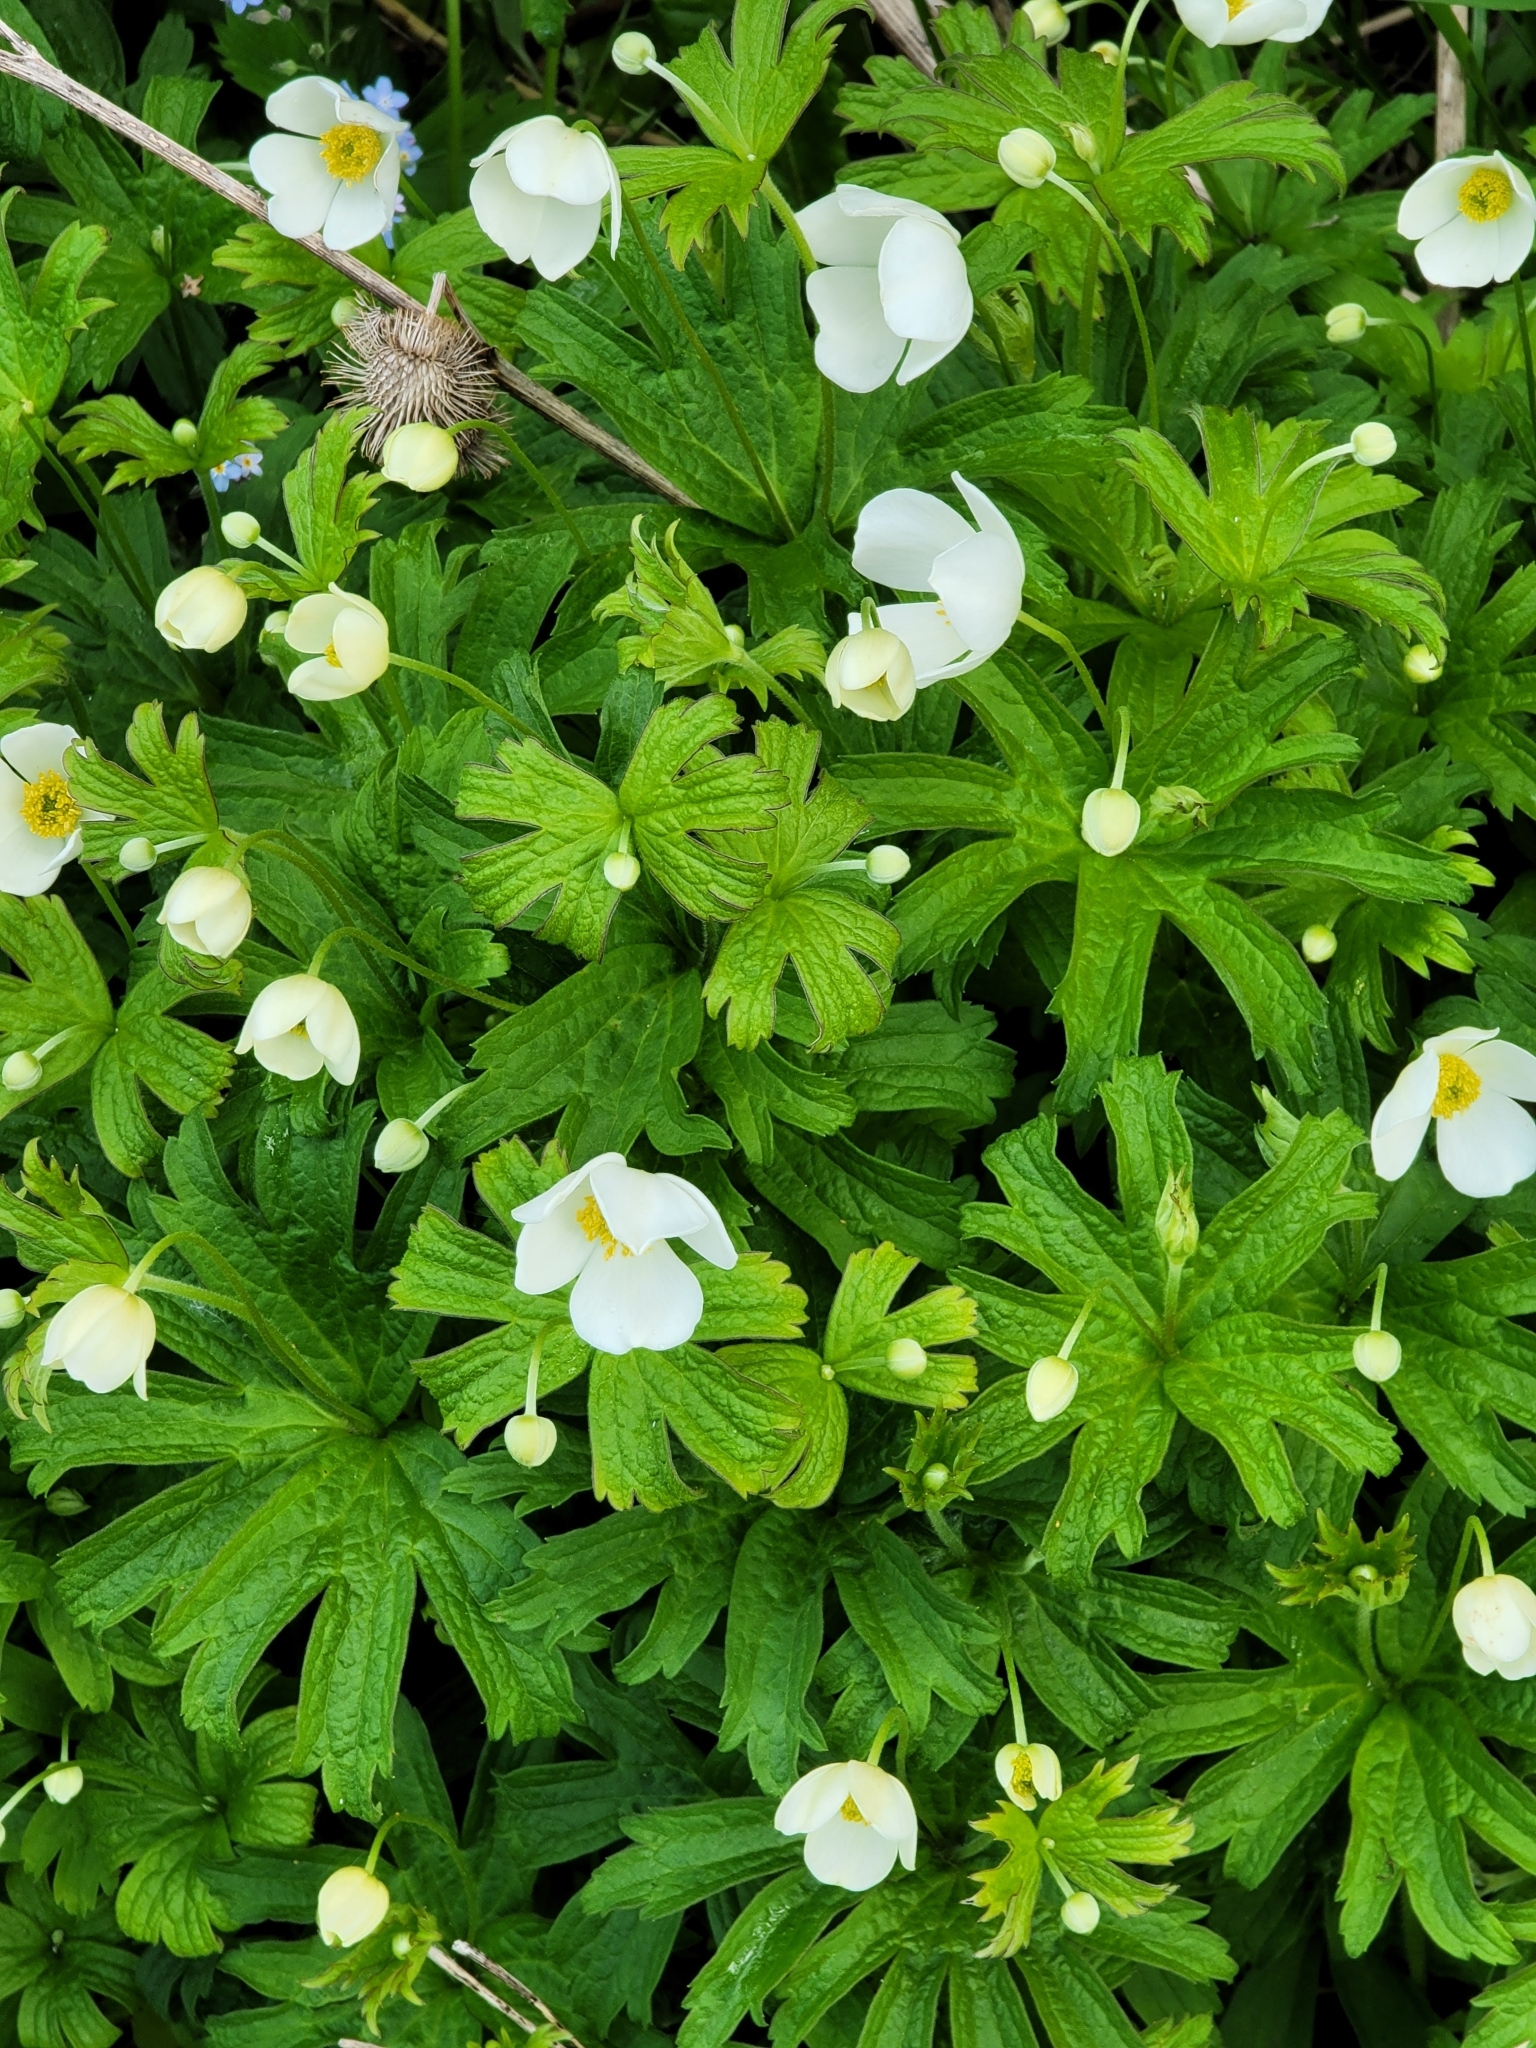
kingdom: Plantae
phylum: Tracheophyta
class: Magnoliopsida
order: Ranunculales
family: Ranunculaceae
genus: Anemonastrum
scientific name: Anemonastrum canadense
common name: Canada anemone
